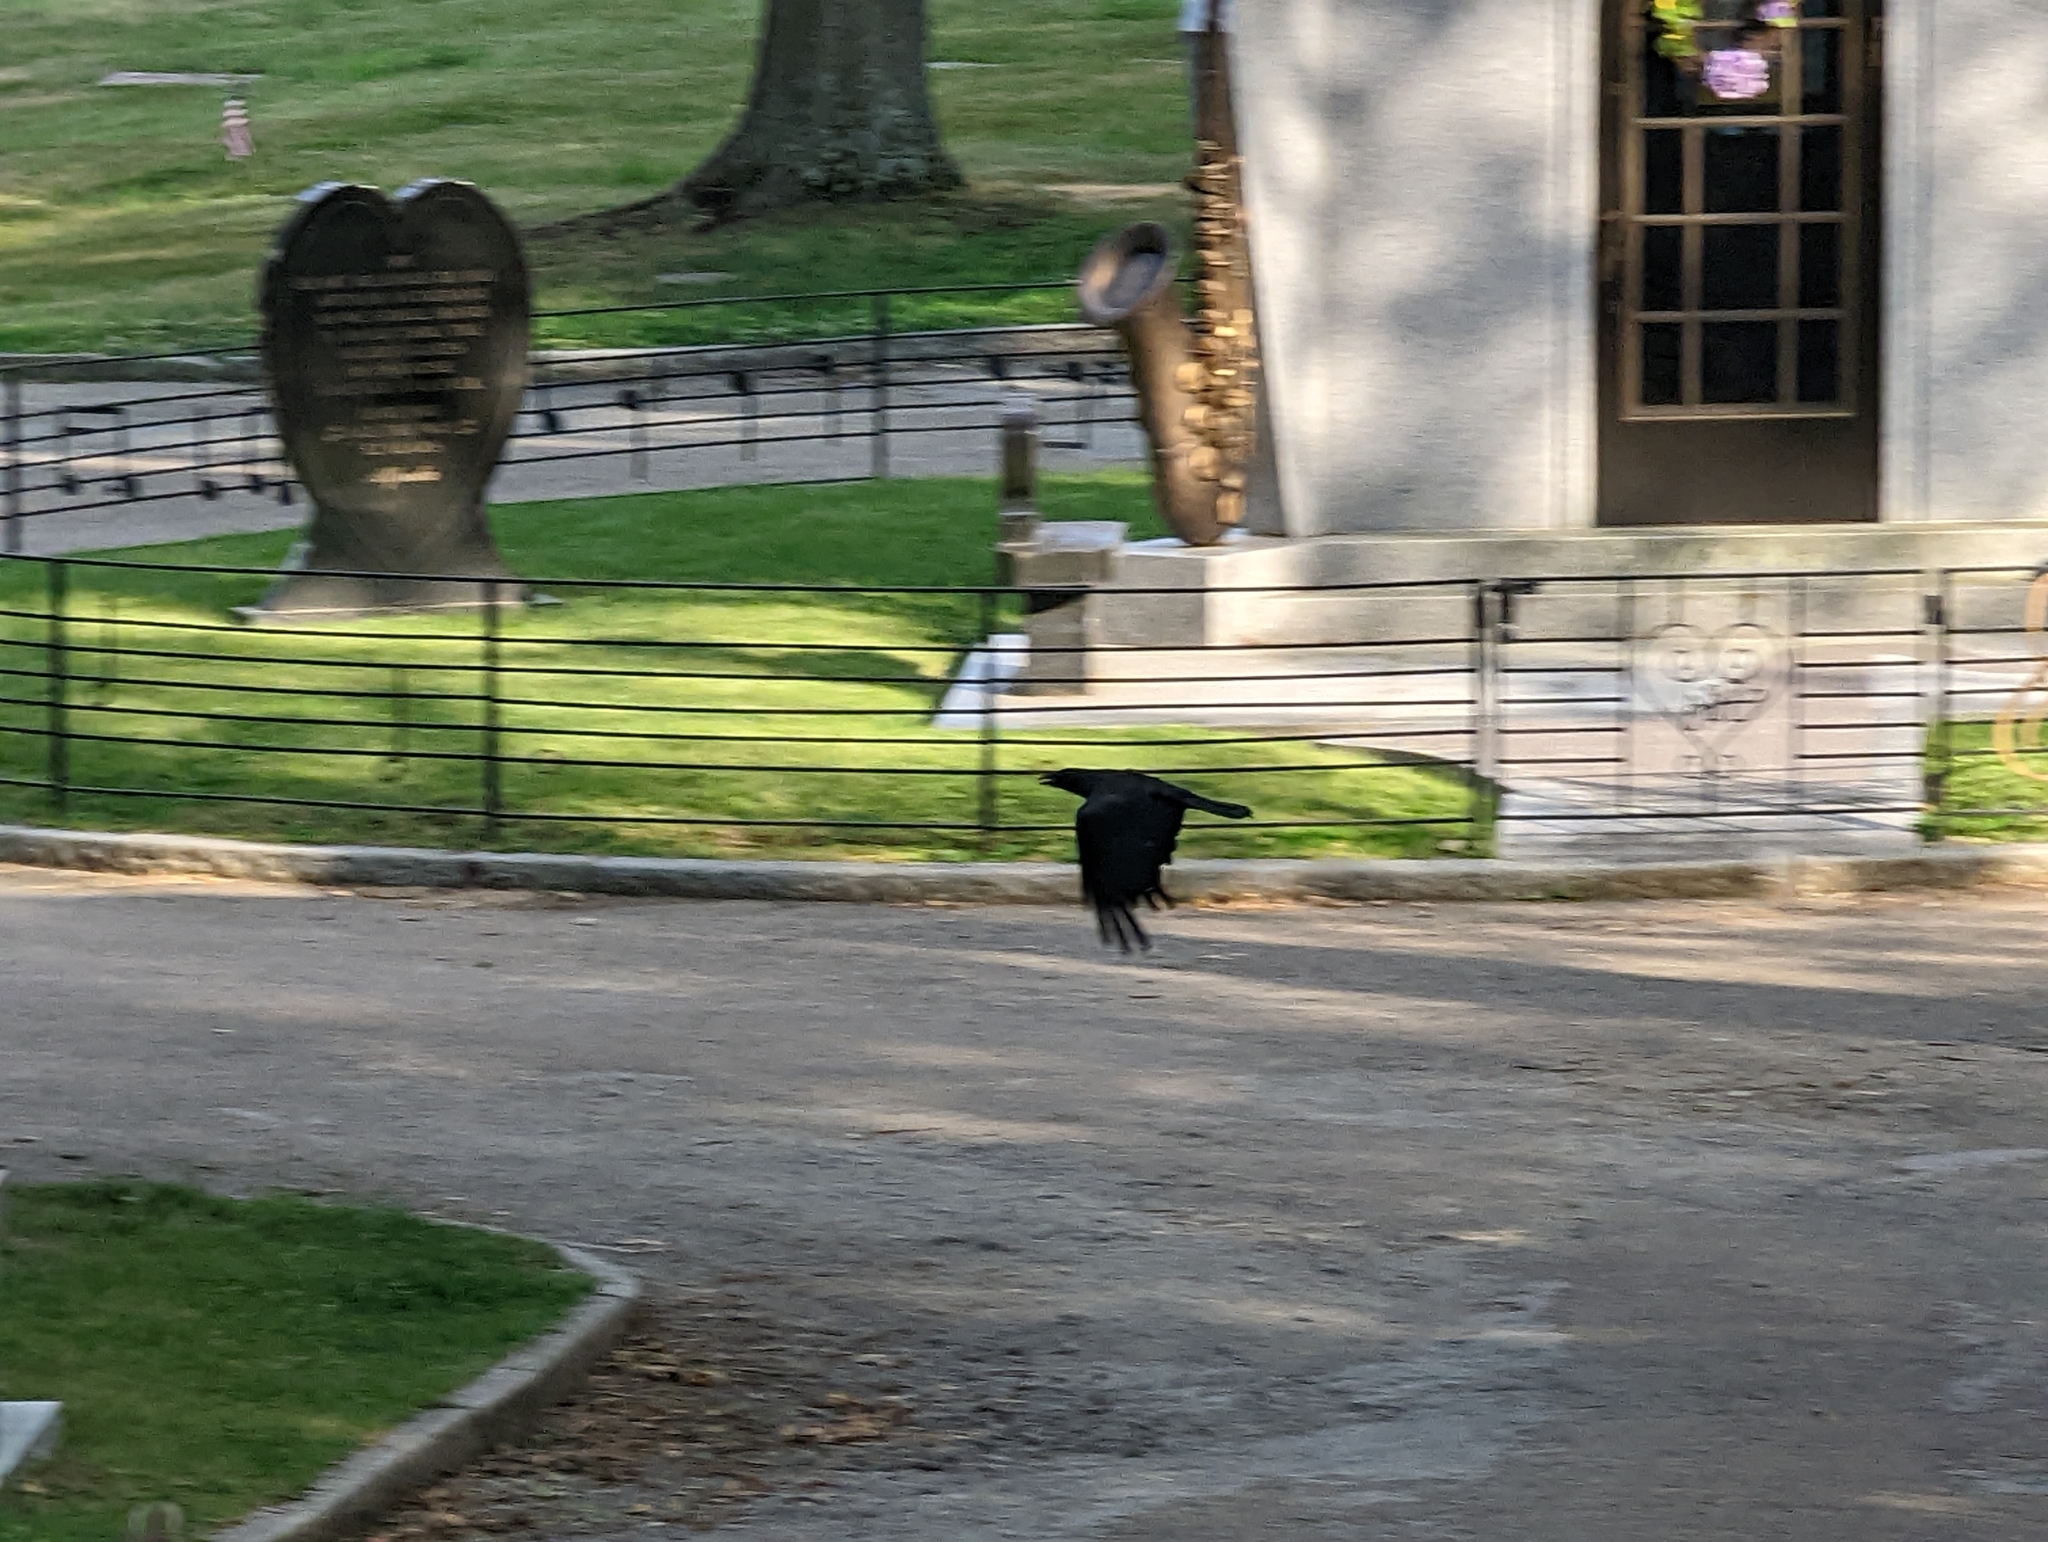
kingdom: Animalia
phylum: Chordata
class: Aves
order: Passeriformes
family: Corvidae
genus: Corvus
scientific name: Corvus brachyrhynchos
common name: American crow
